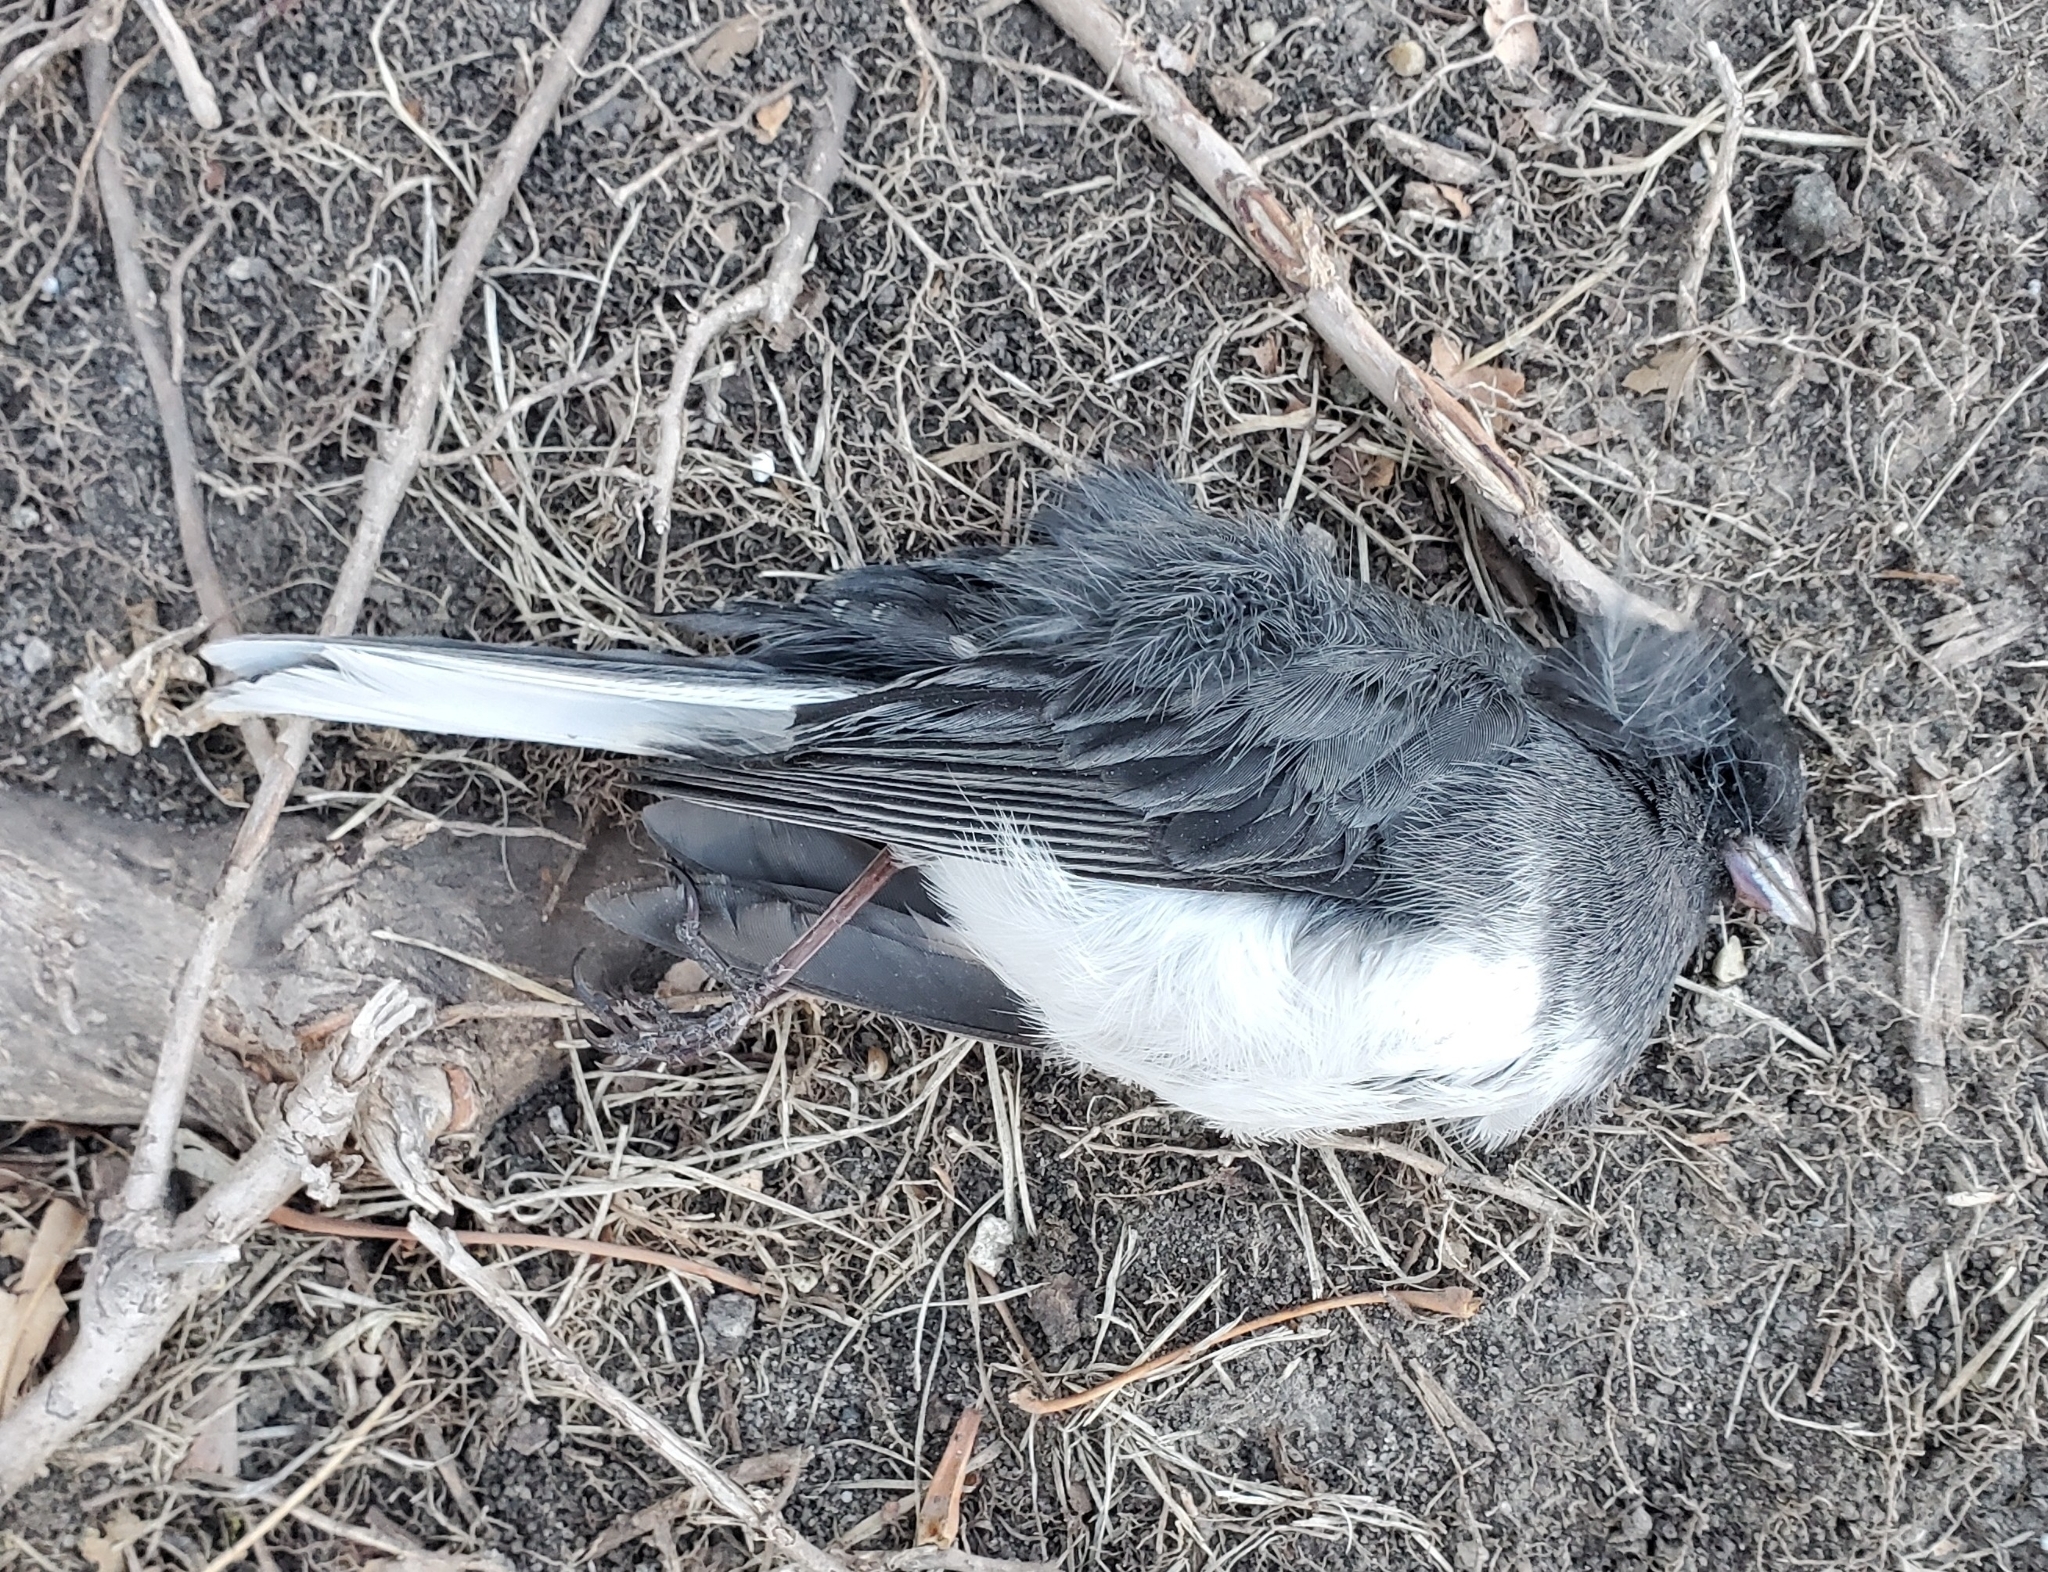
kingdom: Animalia
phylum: Chordata
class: Aves
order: Passeriformes
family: Passerellidae
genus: Junco
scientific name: Junco hyemalis
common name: Dark-eyed junco
